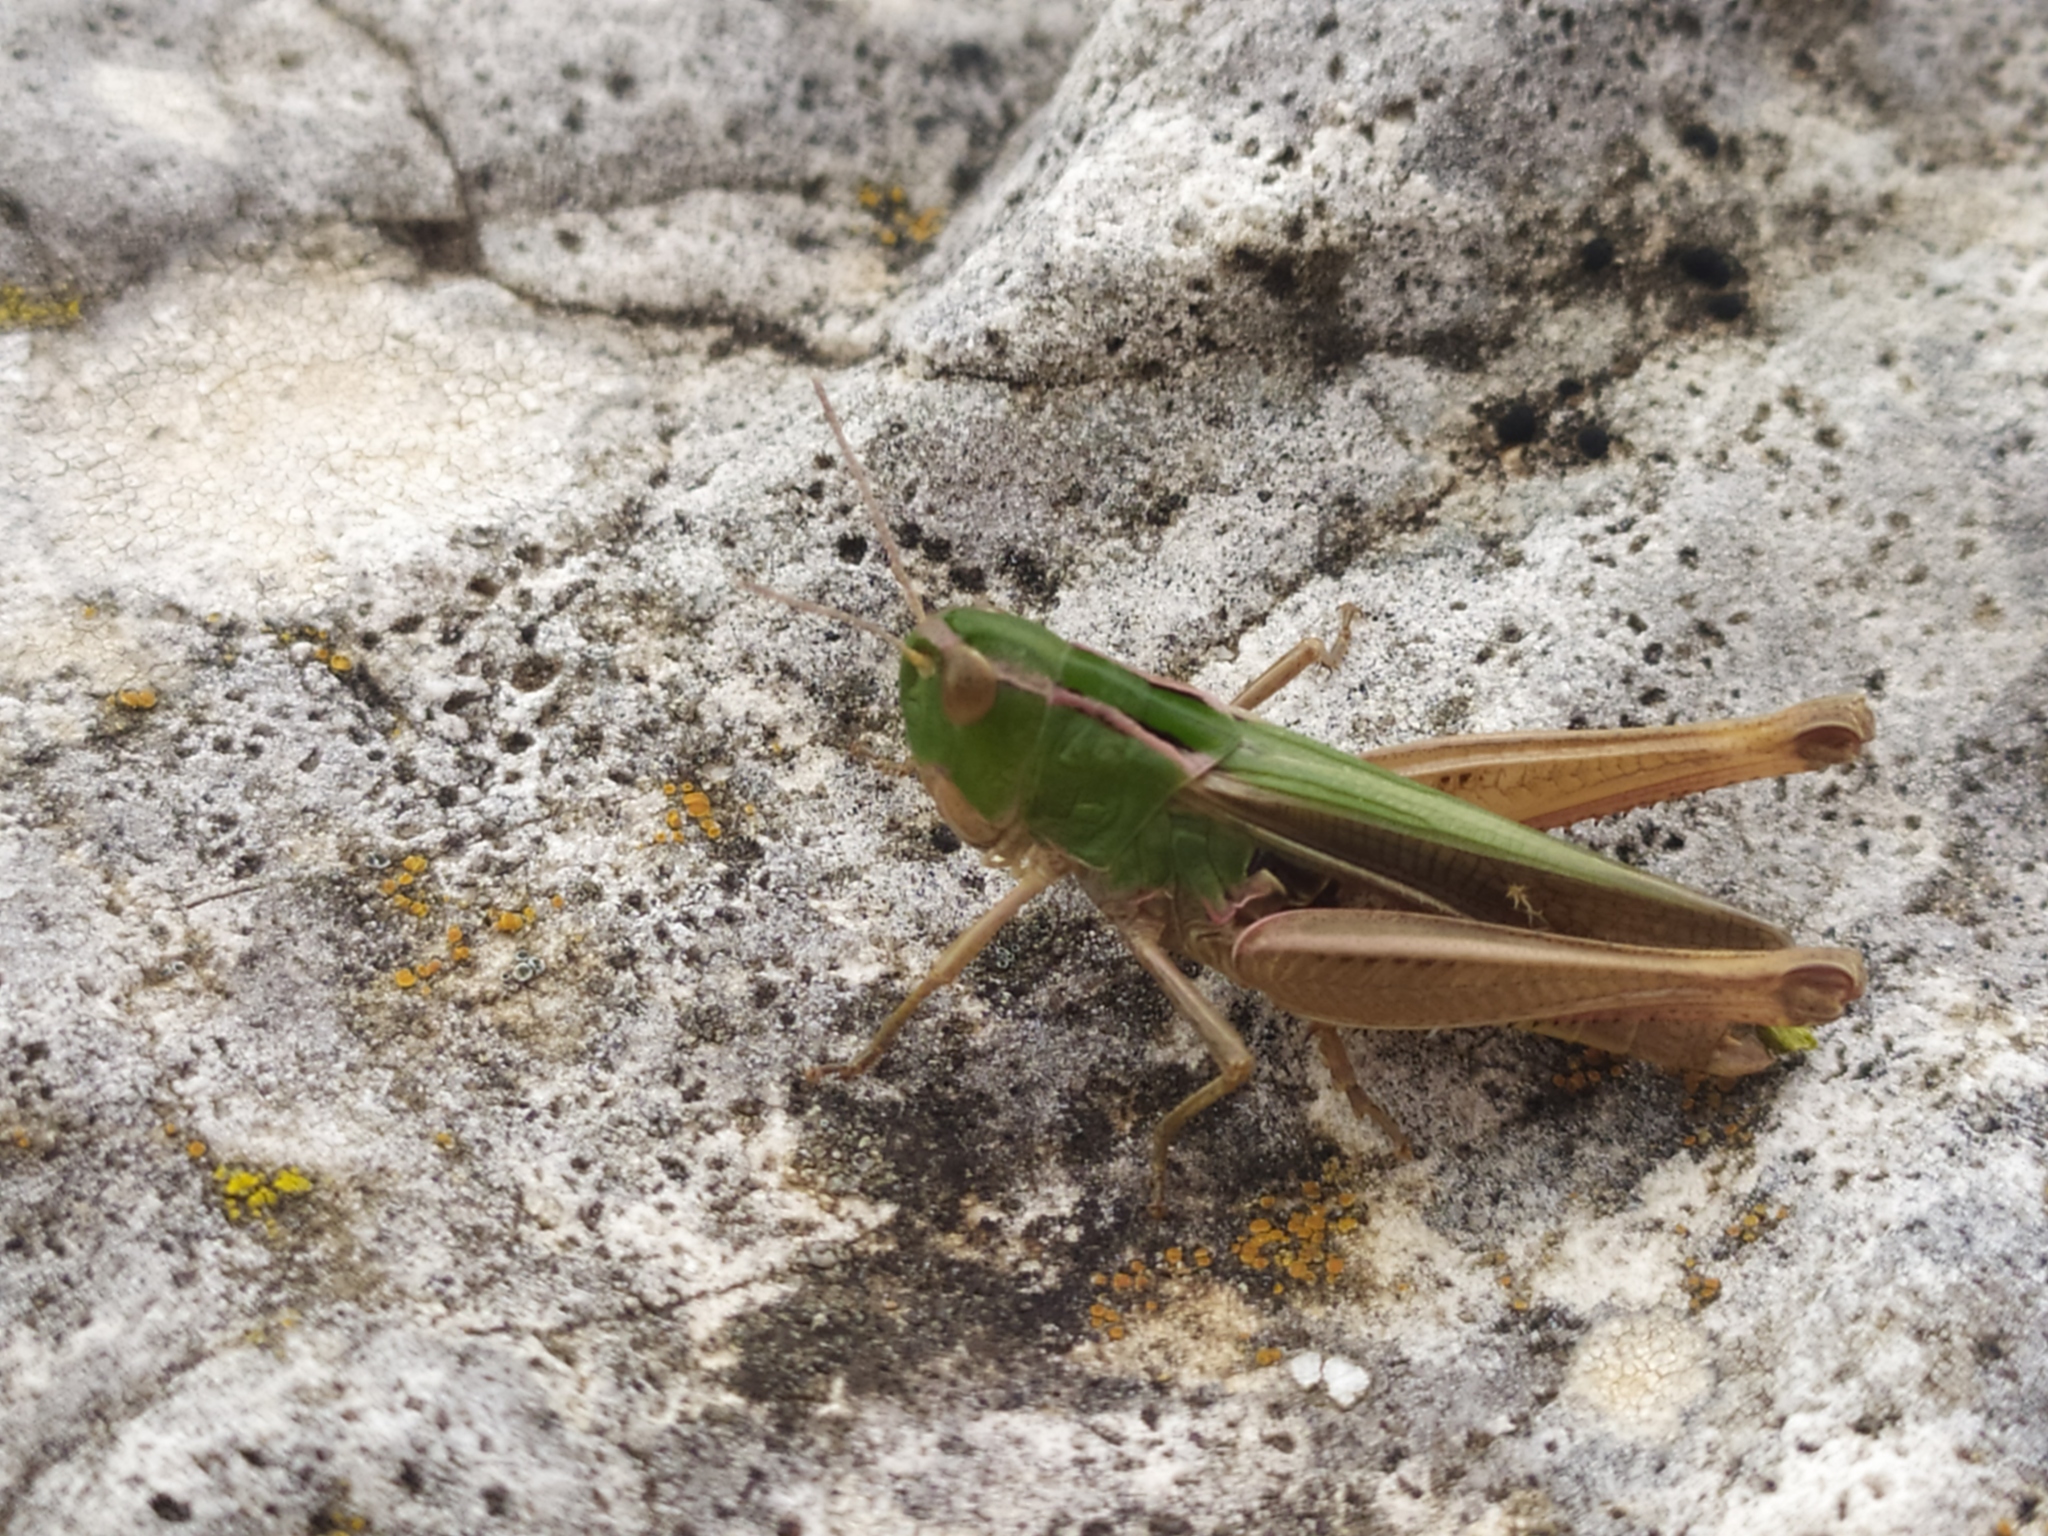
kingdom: Animalia
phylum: Arthropoda
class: Insecta
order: Orthoptera
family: Acrididae
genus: Stenobothrus
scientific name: Stenobothrus lineatus
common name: Stripe-winged grasshopper
